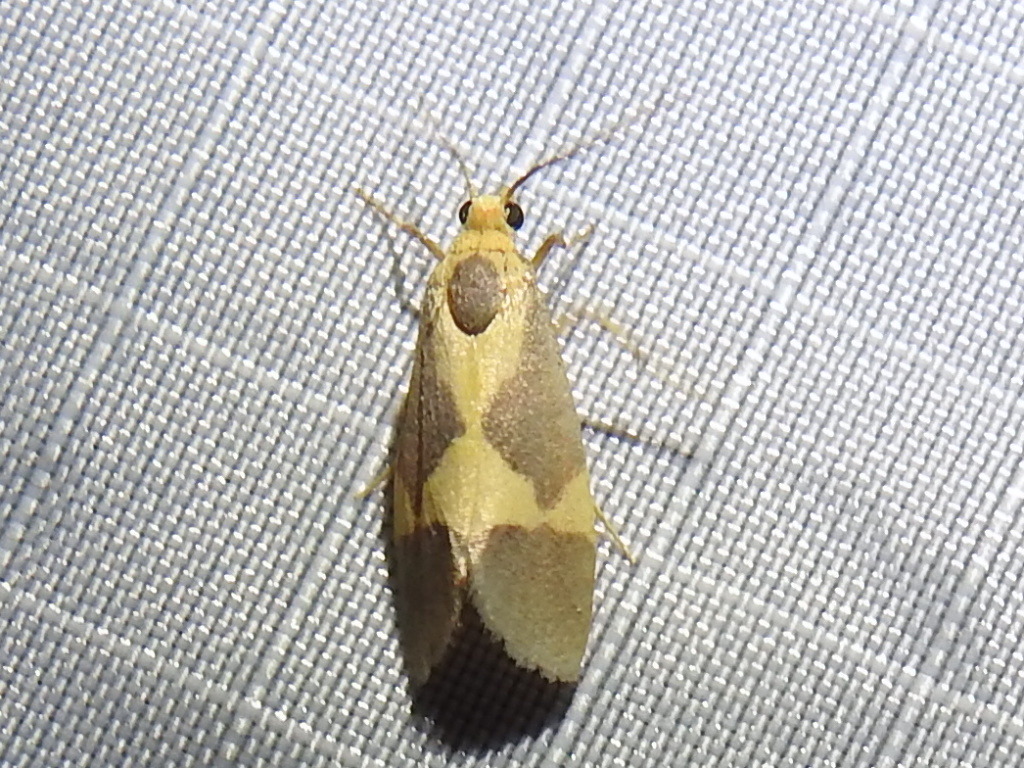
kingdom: Animalia
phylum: Arthropoda
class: Insecta
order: Lepidoptera
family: Erebidae
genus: Cisthene
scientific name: Cisthene unifascia
